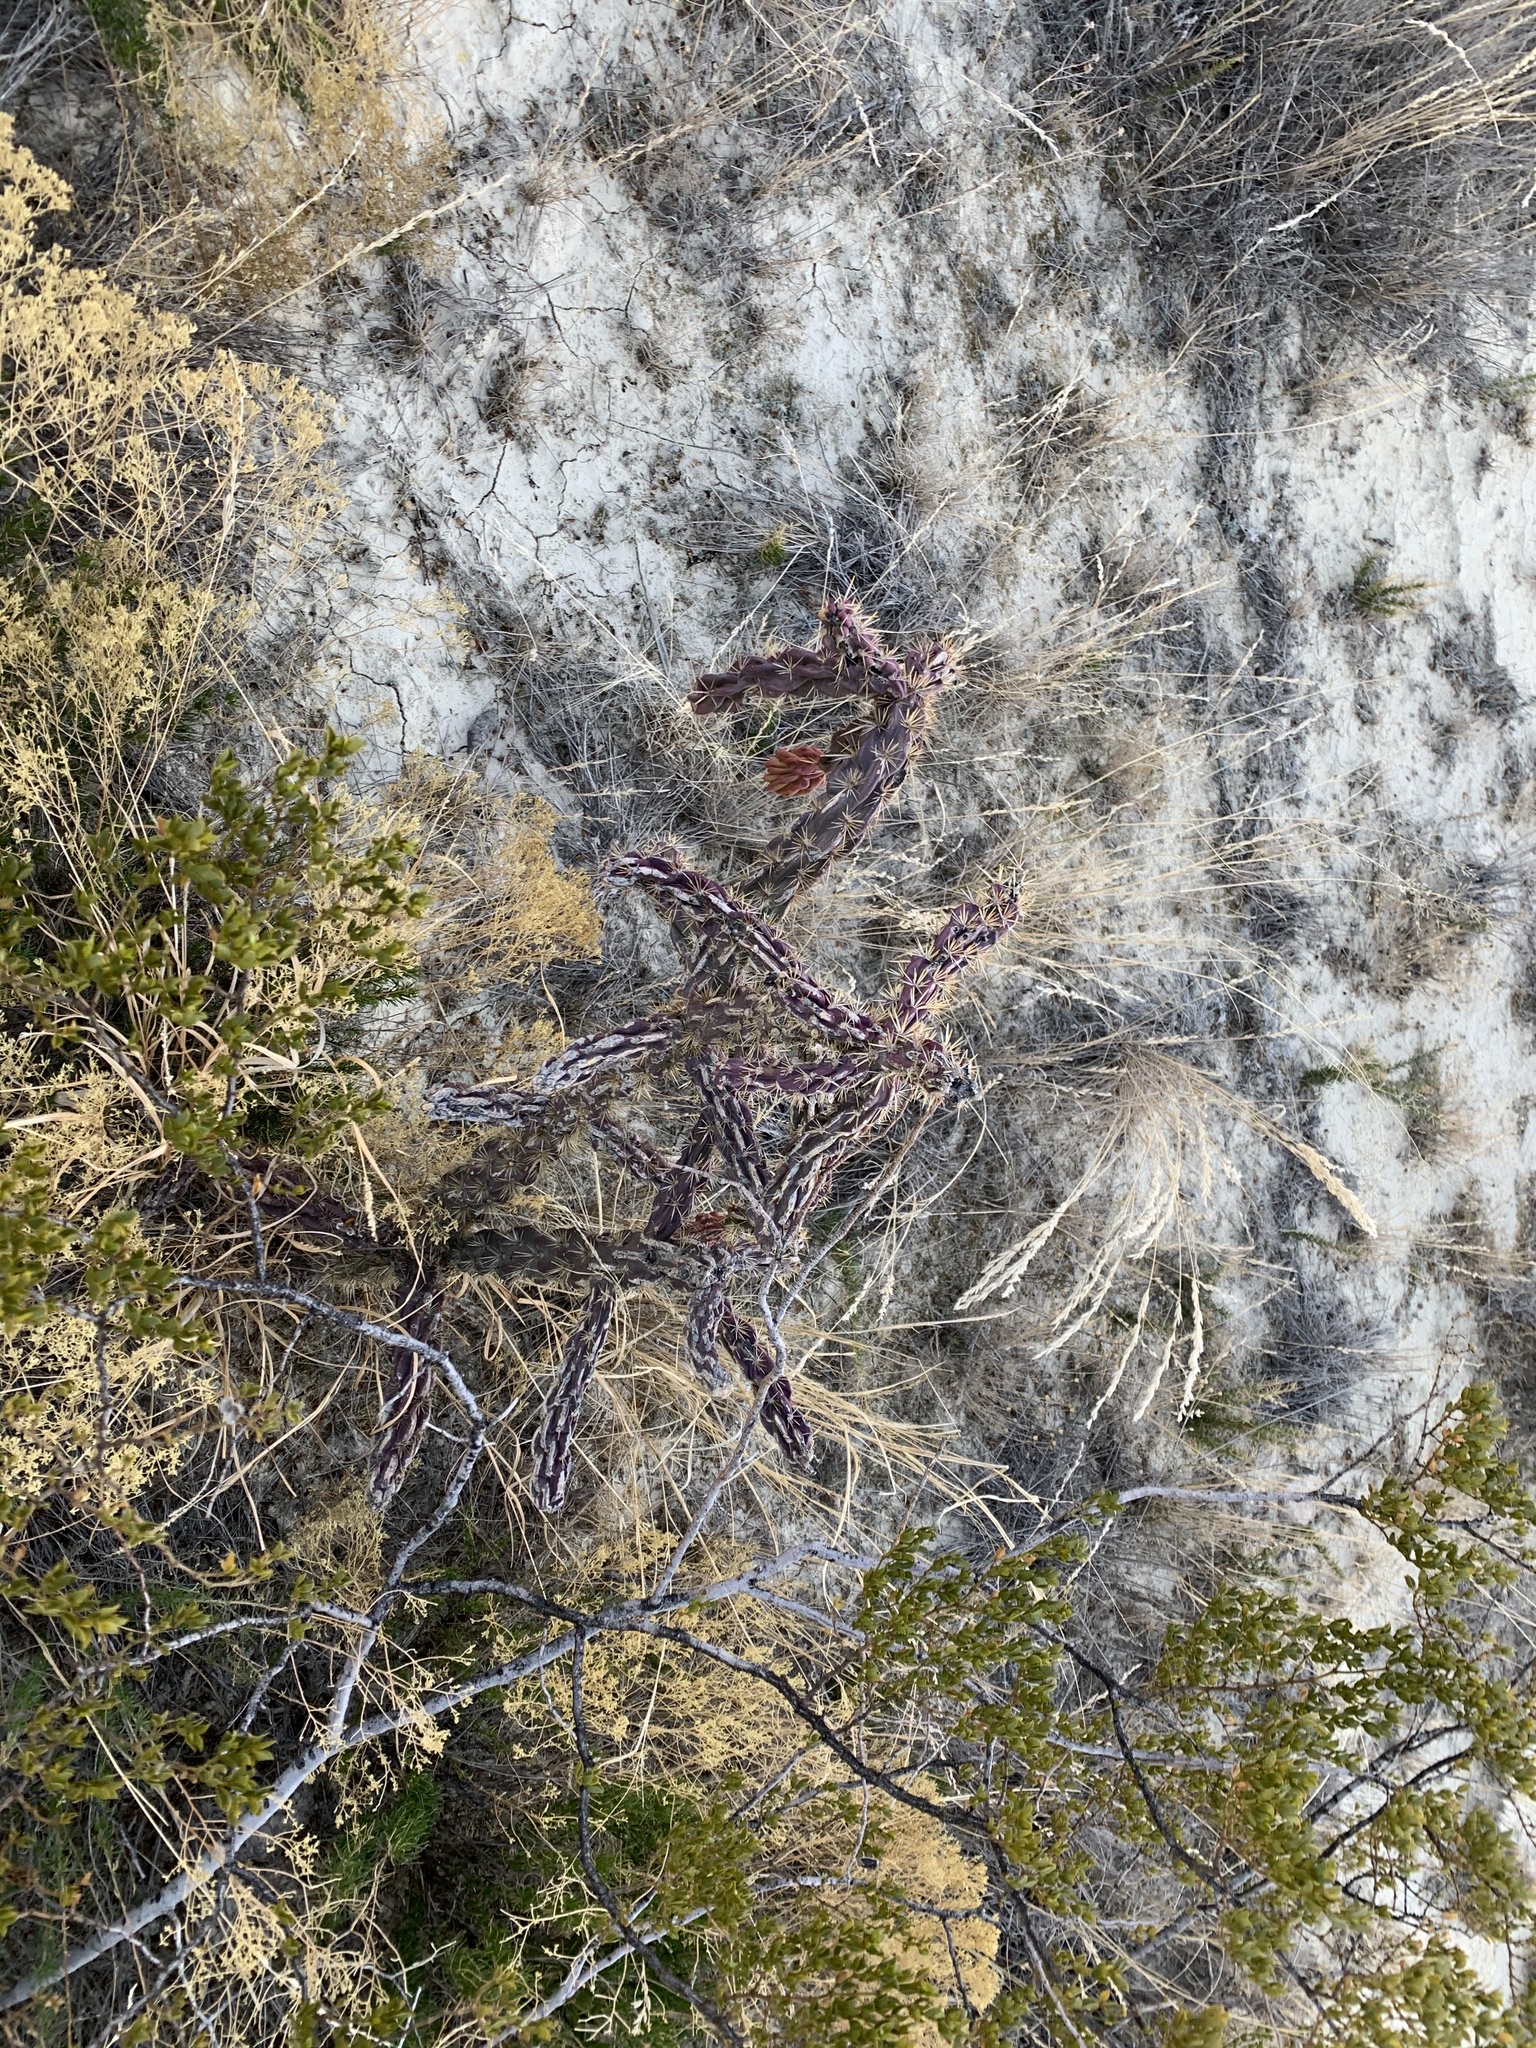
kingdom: Plantae
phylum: Tracheophyta
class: Magnoliopsida
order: Caryophyllales
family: Cactaceae
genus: Cylindropuntia
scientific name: Cylindropuntia imbricata
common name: Candelabrum cactus
